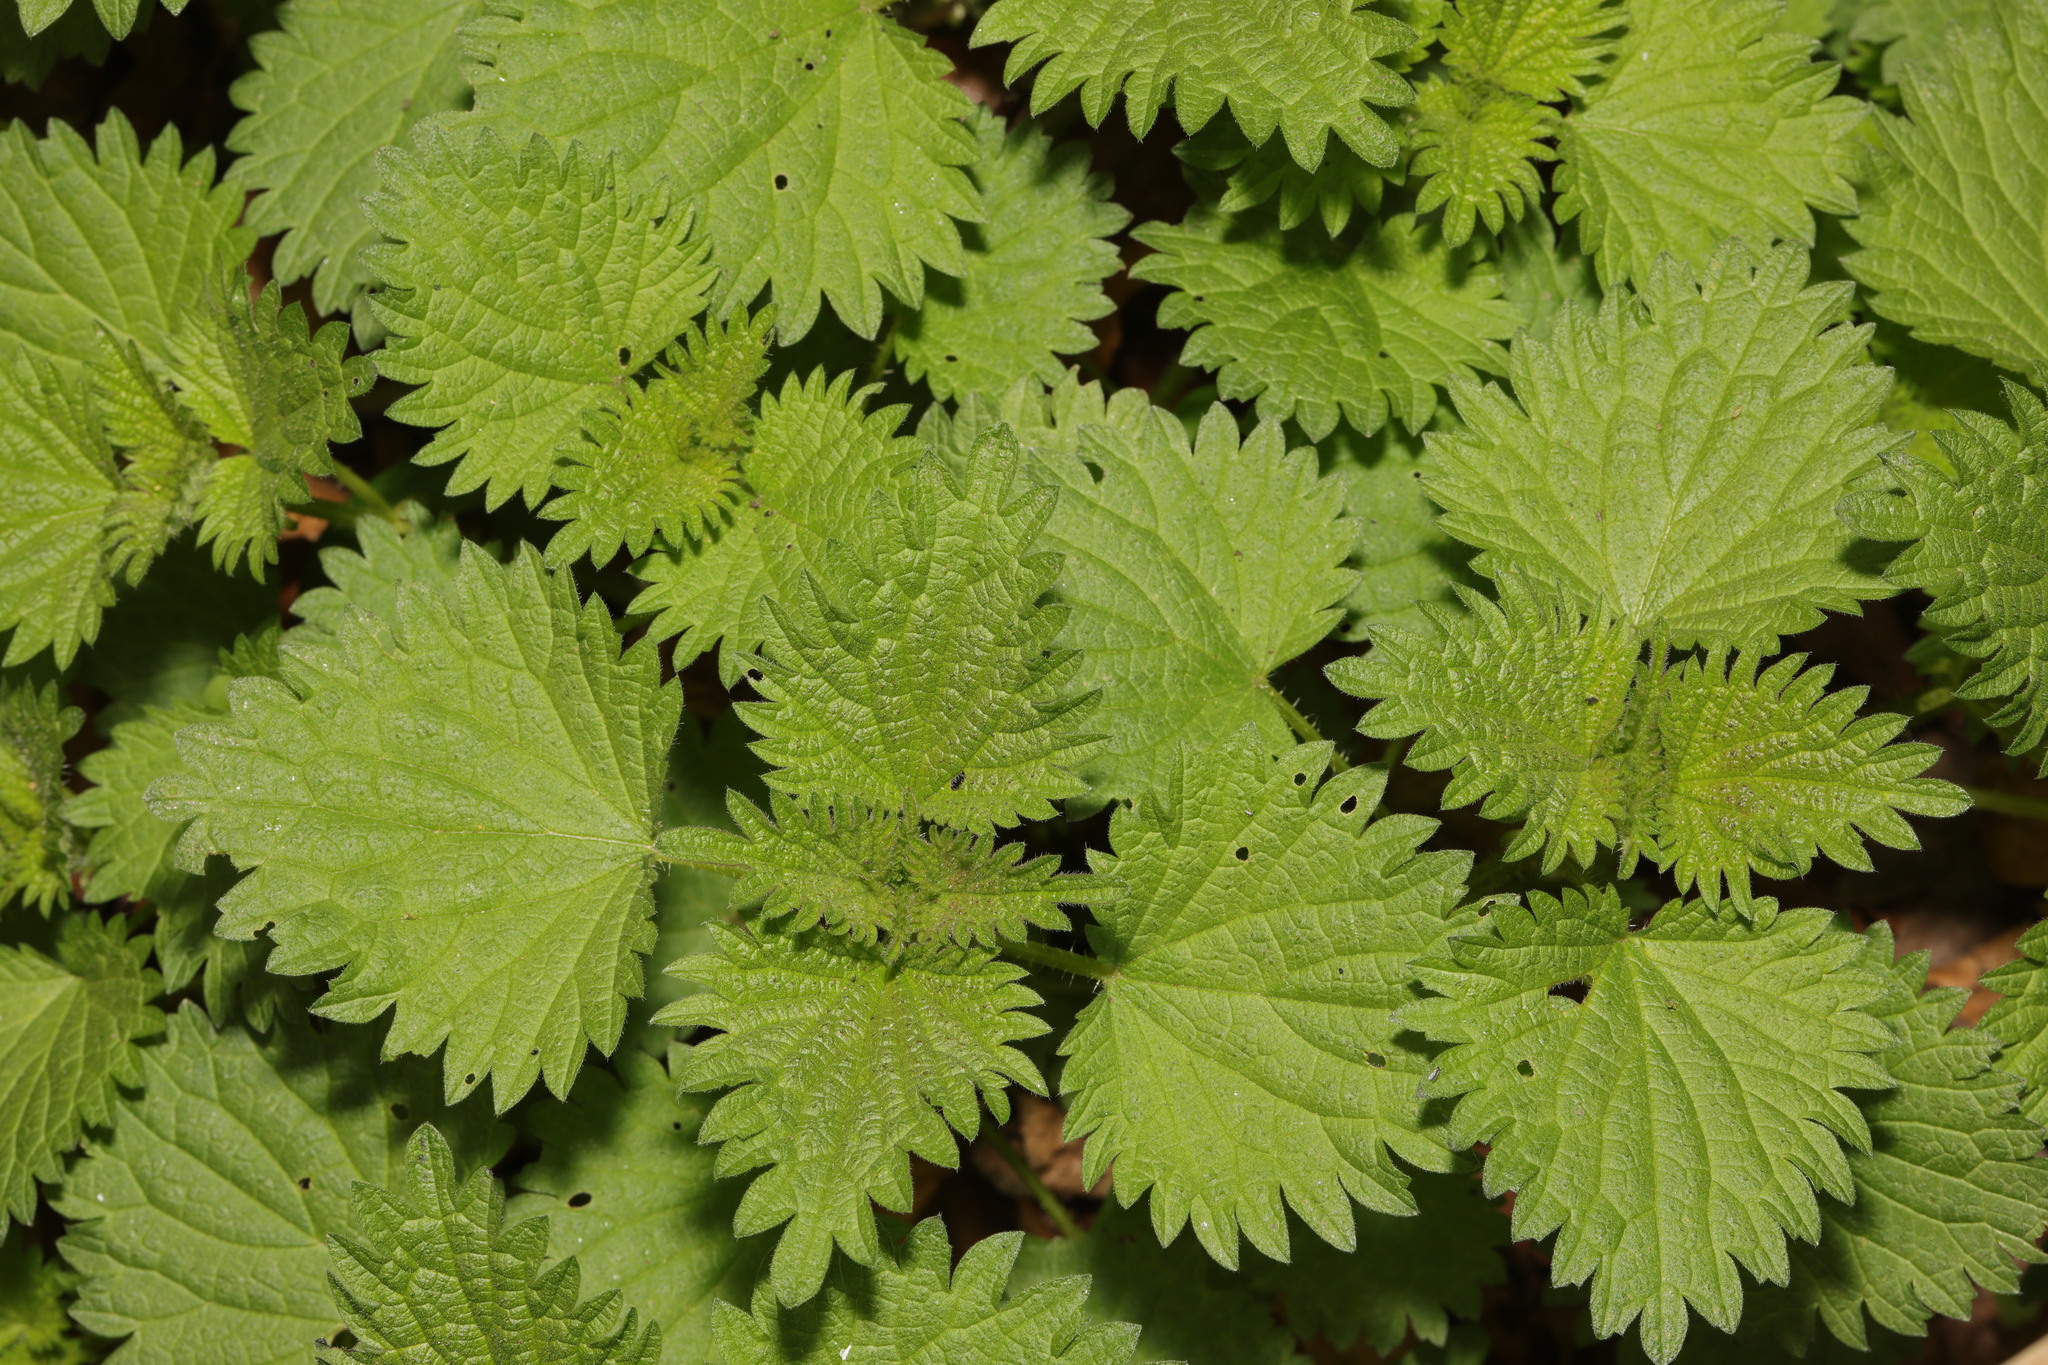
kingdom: Plantae
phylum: Tracheophyta
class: Magnoliopsida
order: Rosales
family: Urticaceae
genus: Urtica
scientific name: Urtica dioica
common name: Common nettle
